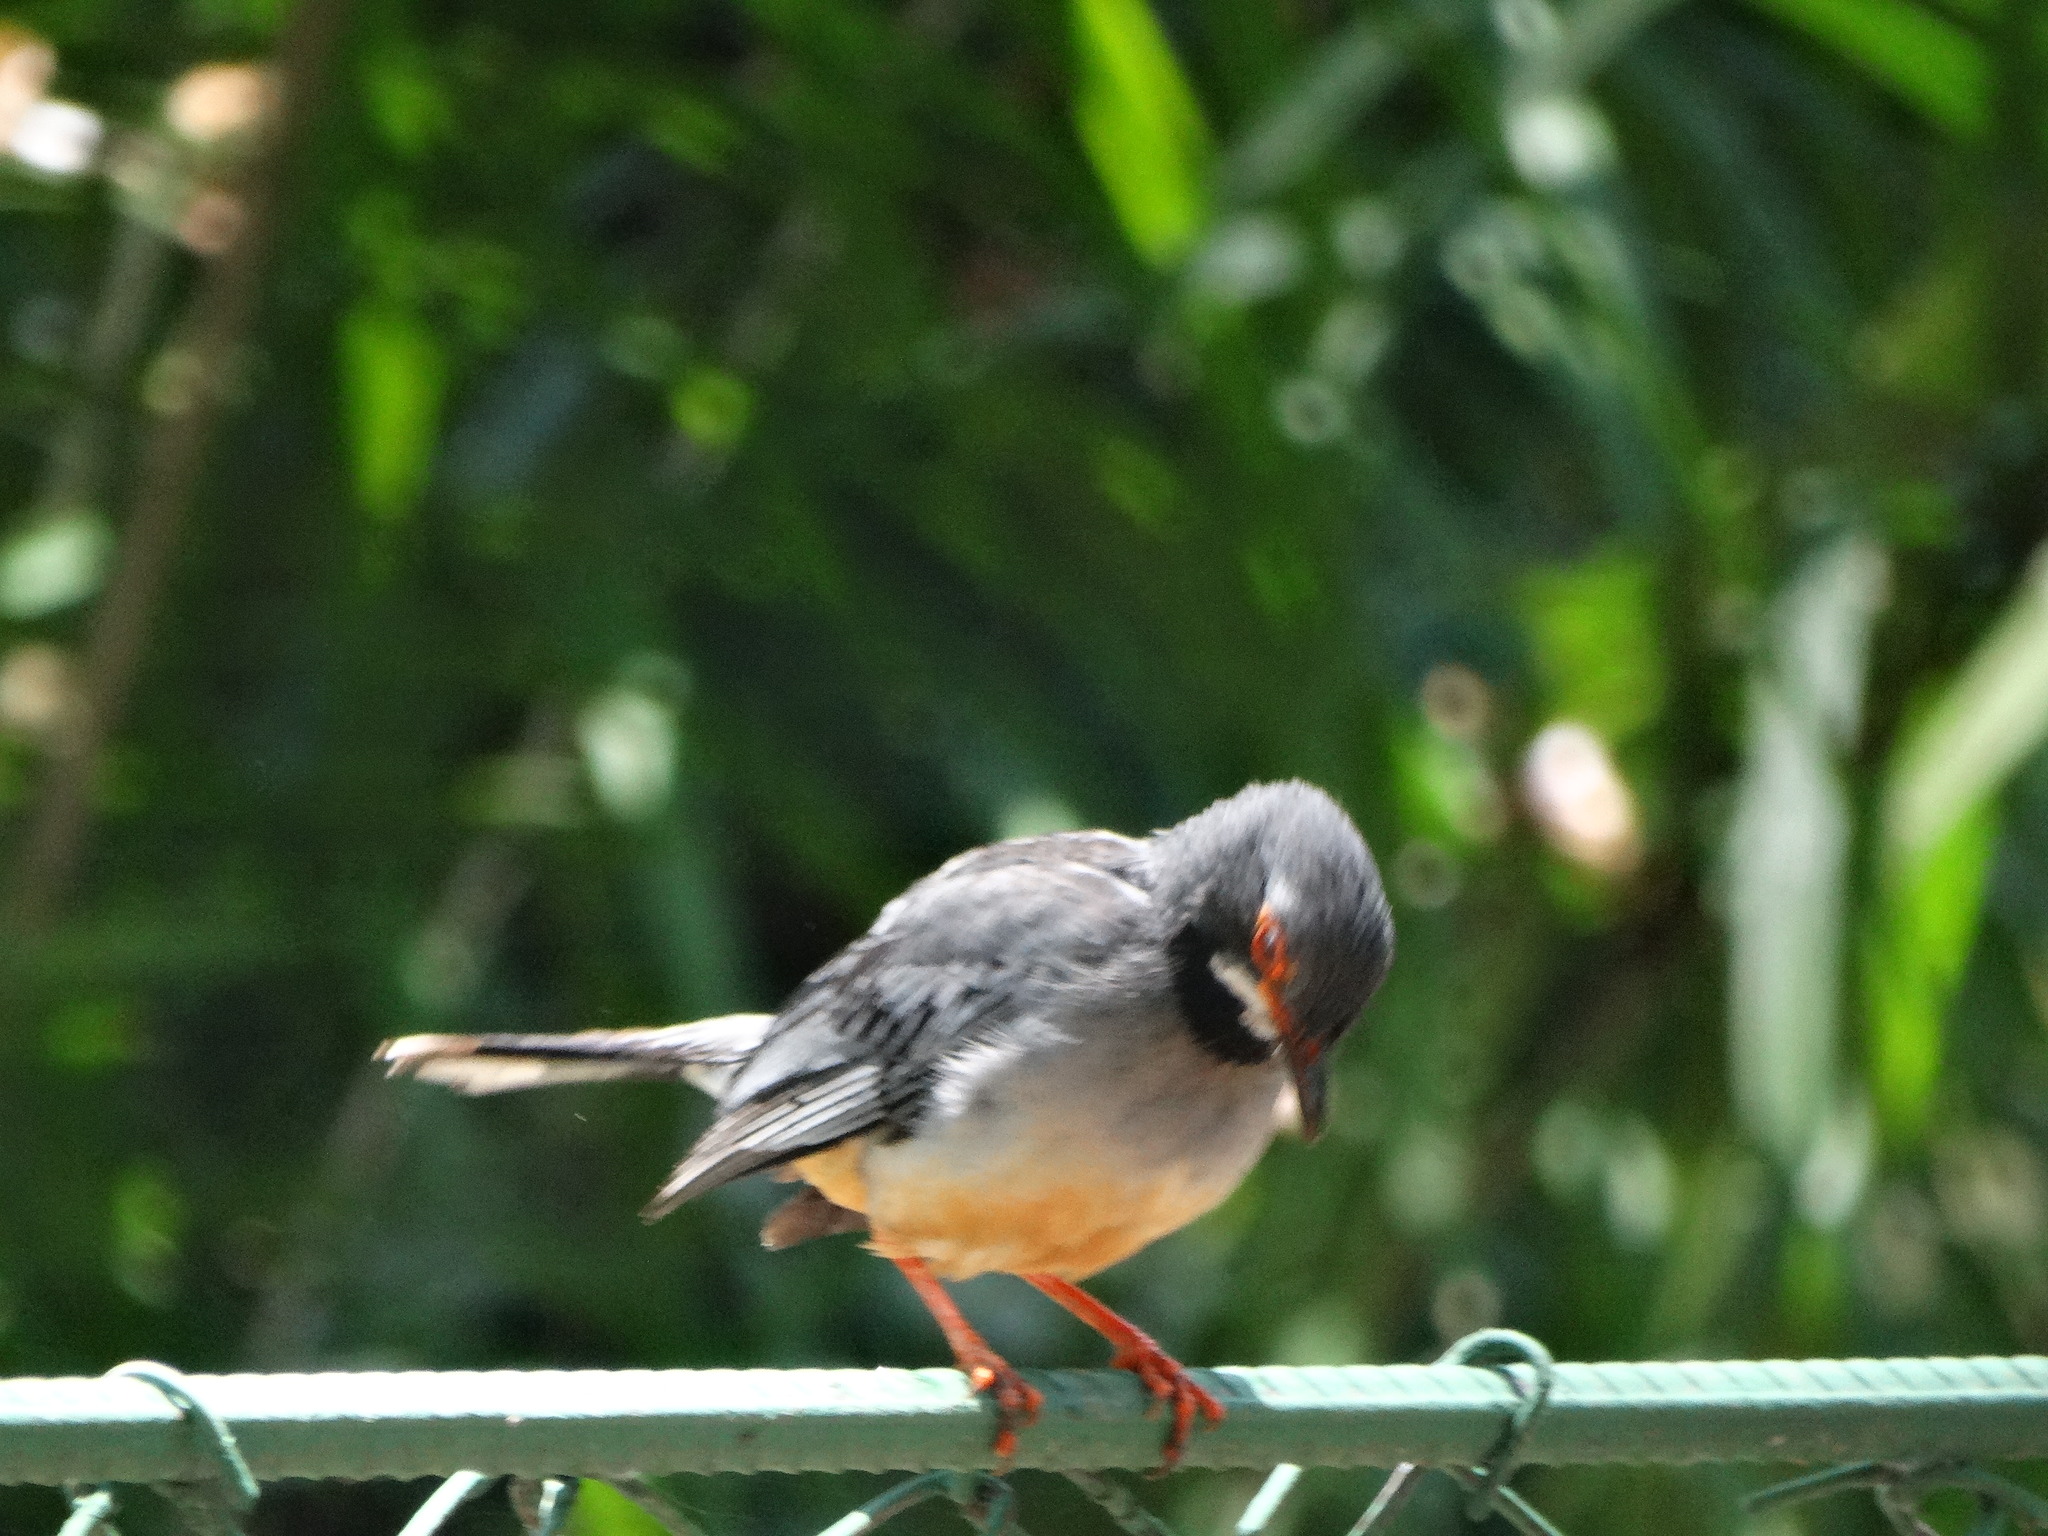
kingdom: Animalia
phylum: Chordata
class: Aves
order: Passeriformes
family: Turdidae
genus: Turdus
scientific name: Turdus plumbeus
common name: Red-legged thrush
